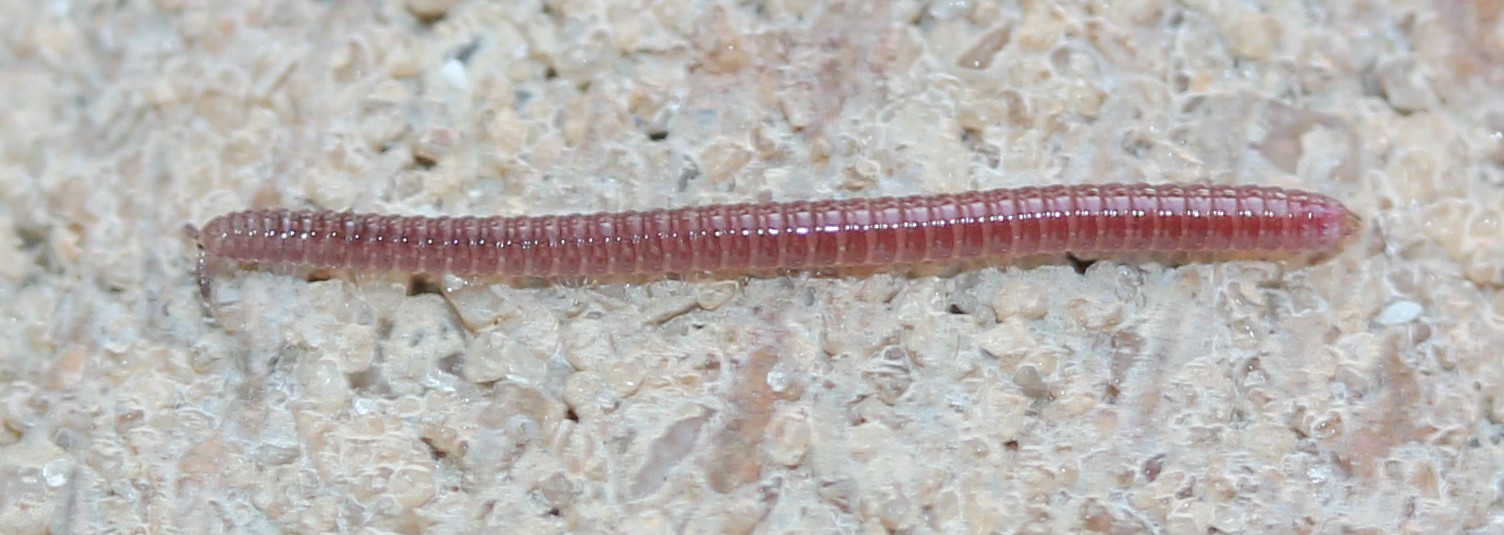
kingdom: Animalia
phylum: Arthropoda
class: Diplopoda
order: Polyzoniida
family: Siphonotidae
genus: Rhinotus
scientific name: Rhinotus purpureus
